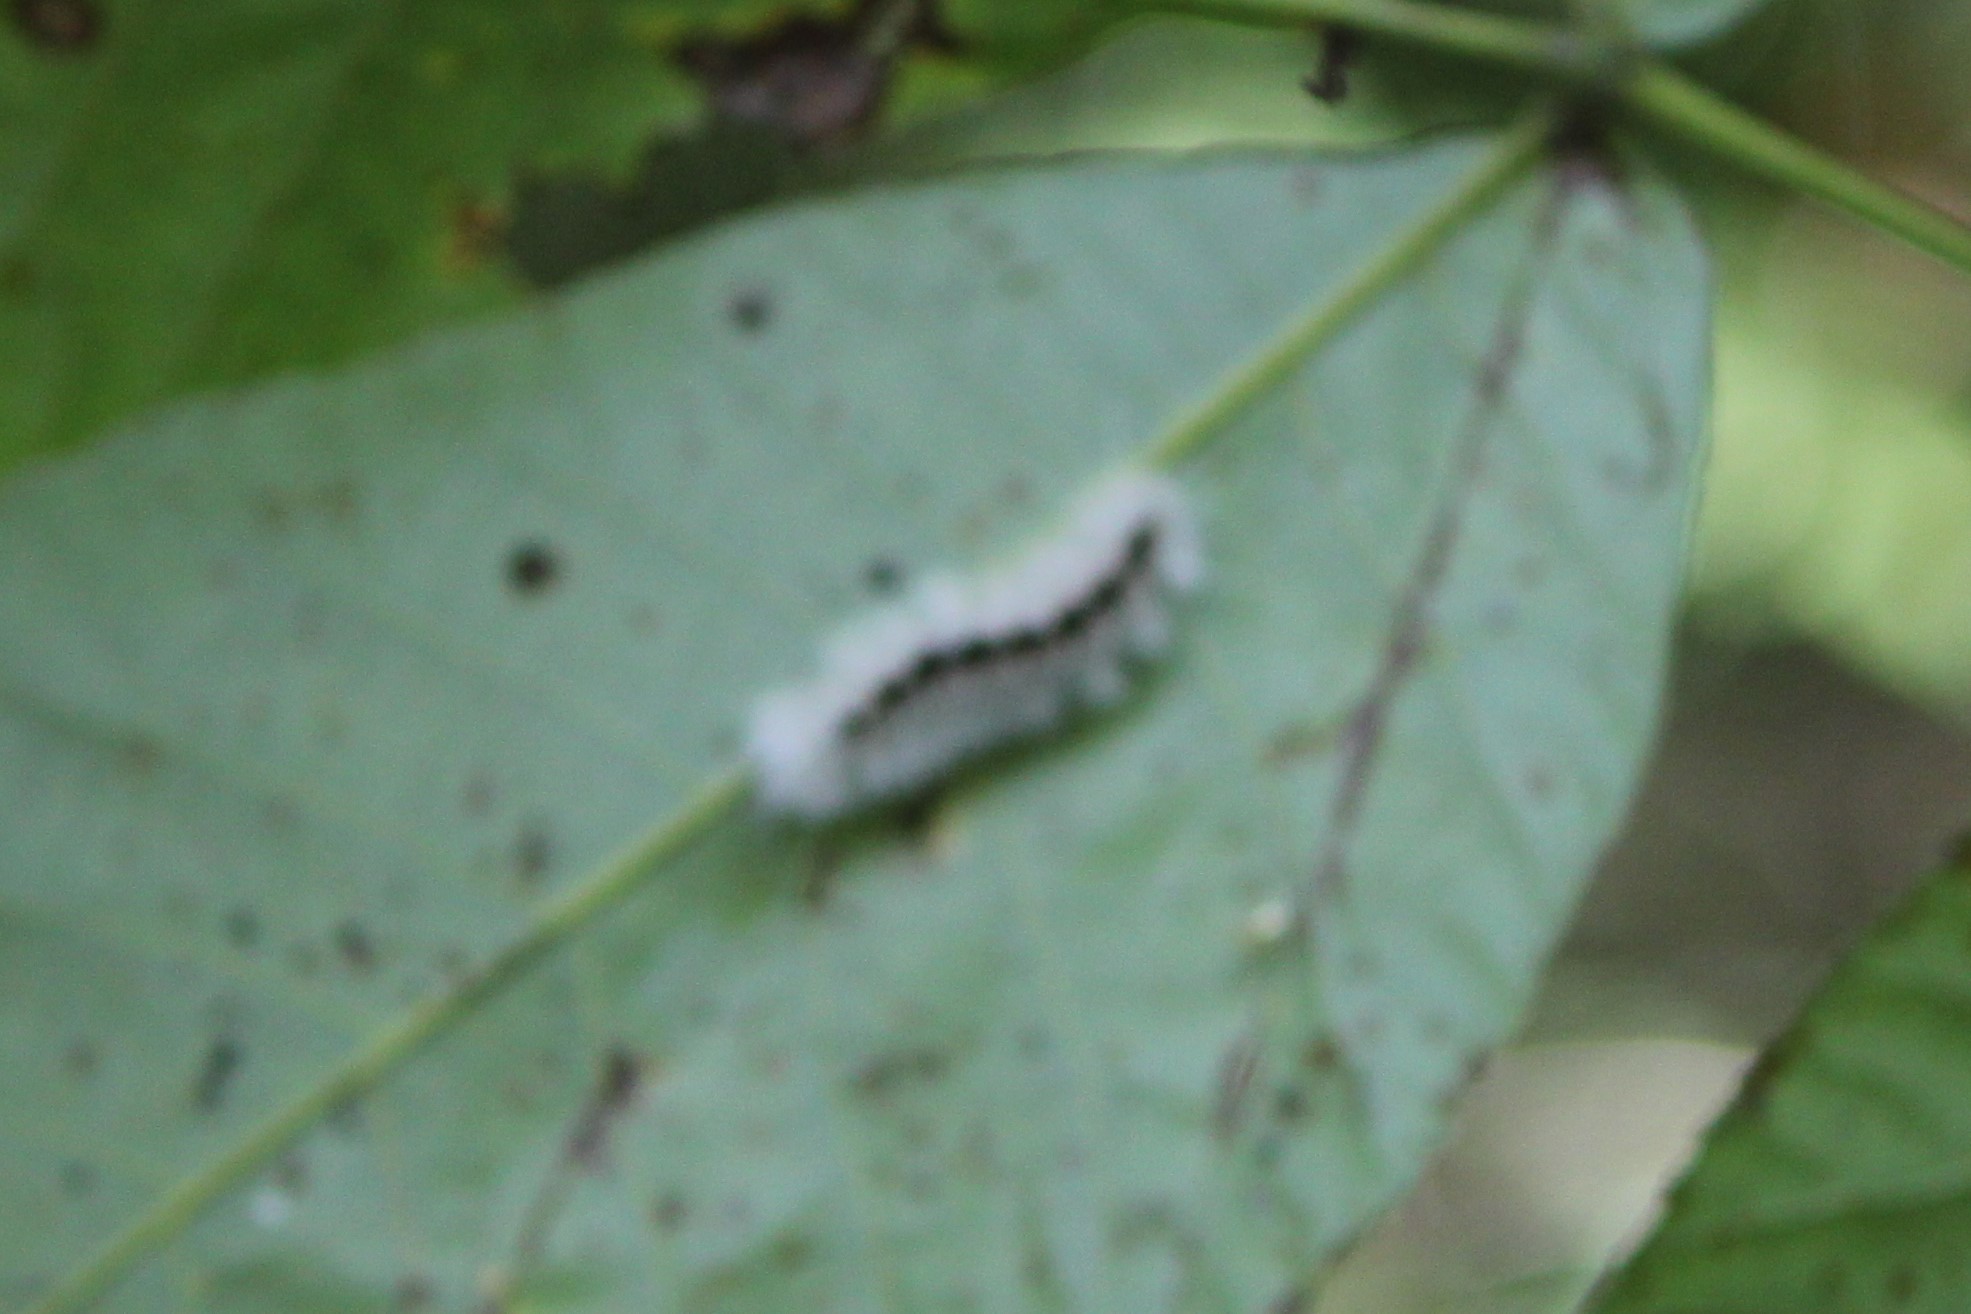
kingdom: Animalia
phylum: Arthropoda
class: Insecta
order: Lepidoptera
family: Erebidae
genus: Lophocampa
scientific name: Lophocampa caryae
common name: Hickory tussock moth
